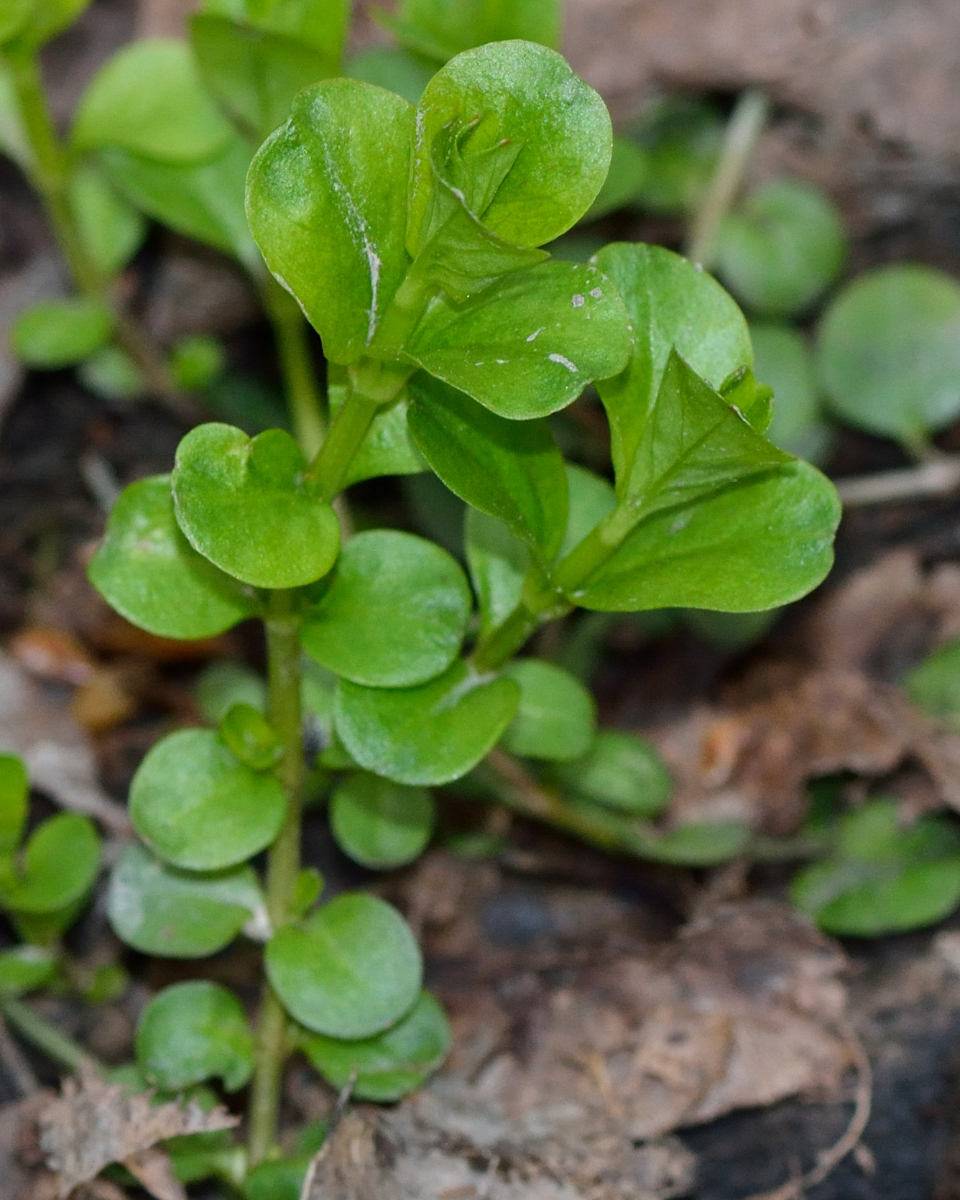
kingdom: Plantae
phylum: Tracheophyta
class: Magnoliopsida
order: Ericales
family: Primulaceae
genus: Lysimachia
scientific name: Lysimachia nummularia
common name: Moneywort
